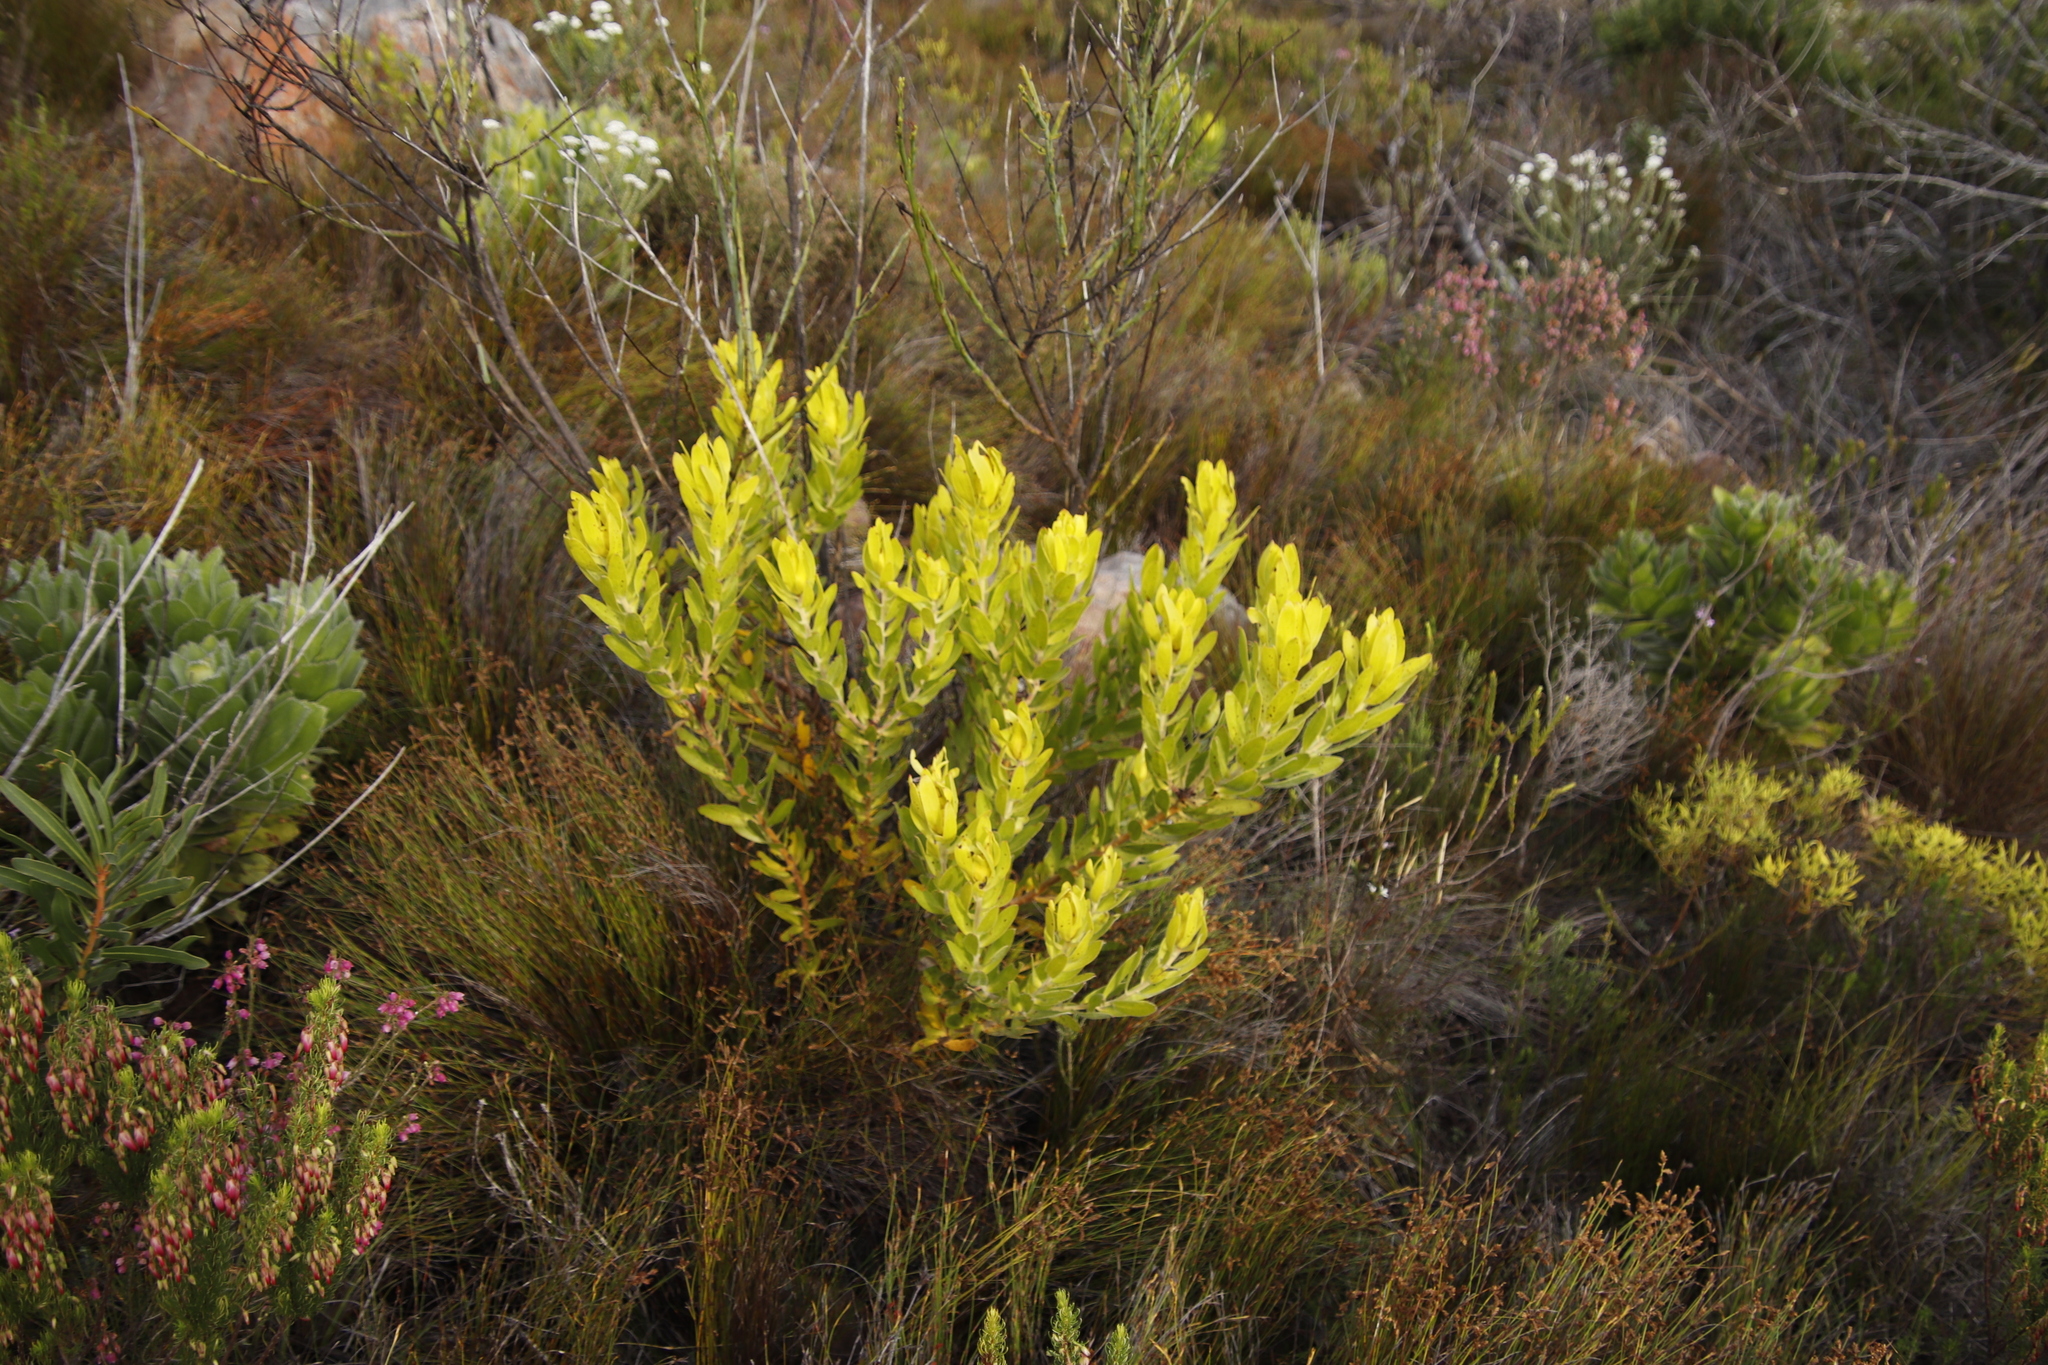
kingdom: Plantae
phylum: Tracheophyta
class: Magnoliopsida
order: Proteales
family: Proteaceae
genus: Leucadendron
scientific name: Leucadendron laureolum
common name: Golden sunshinebush
